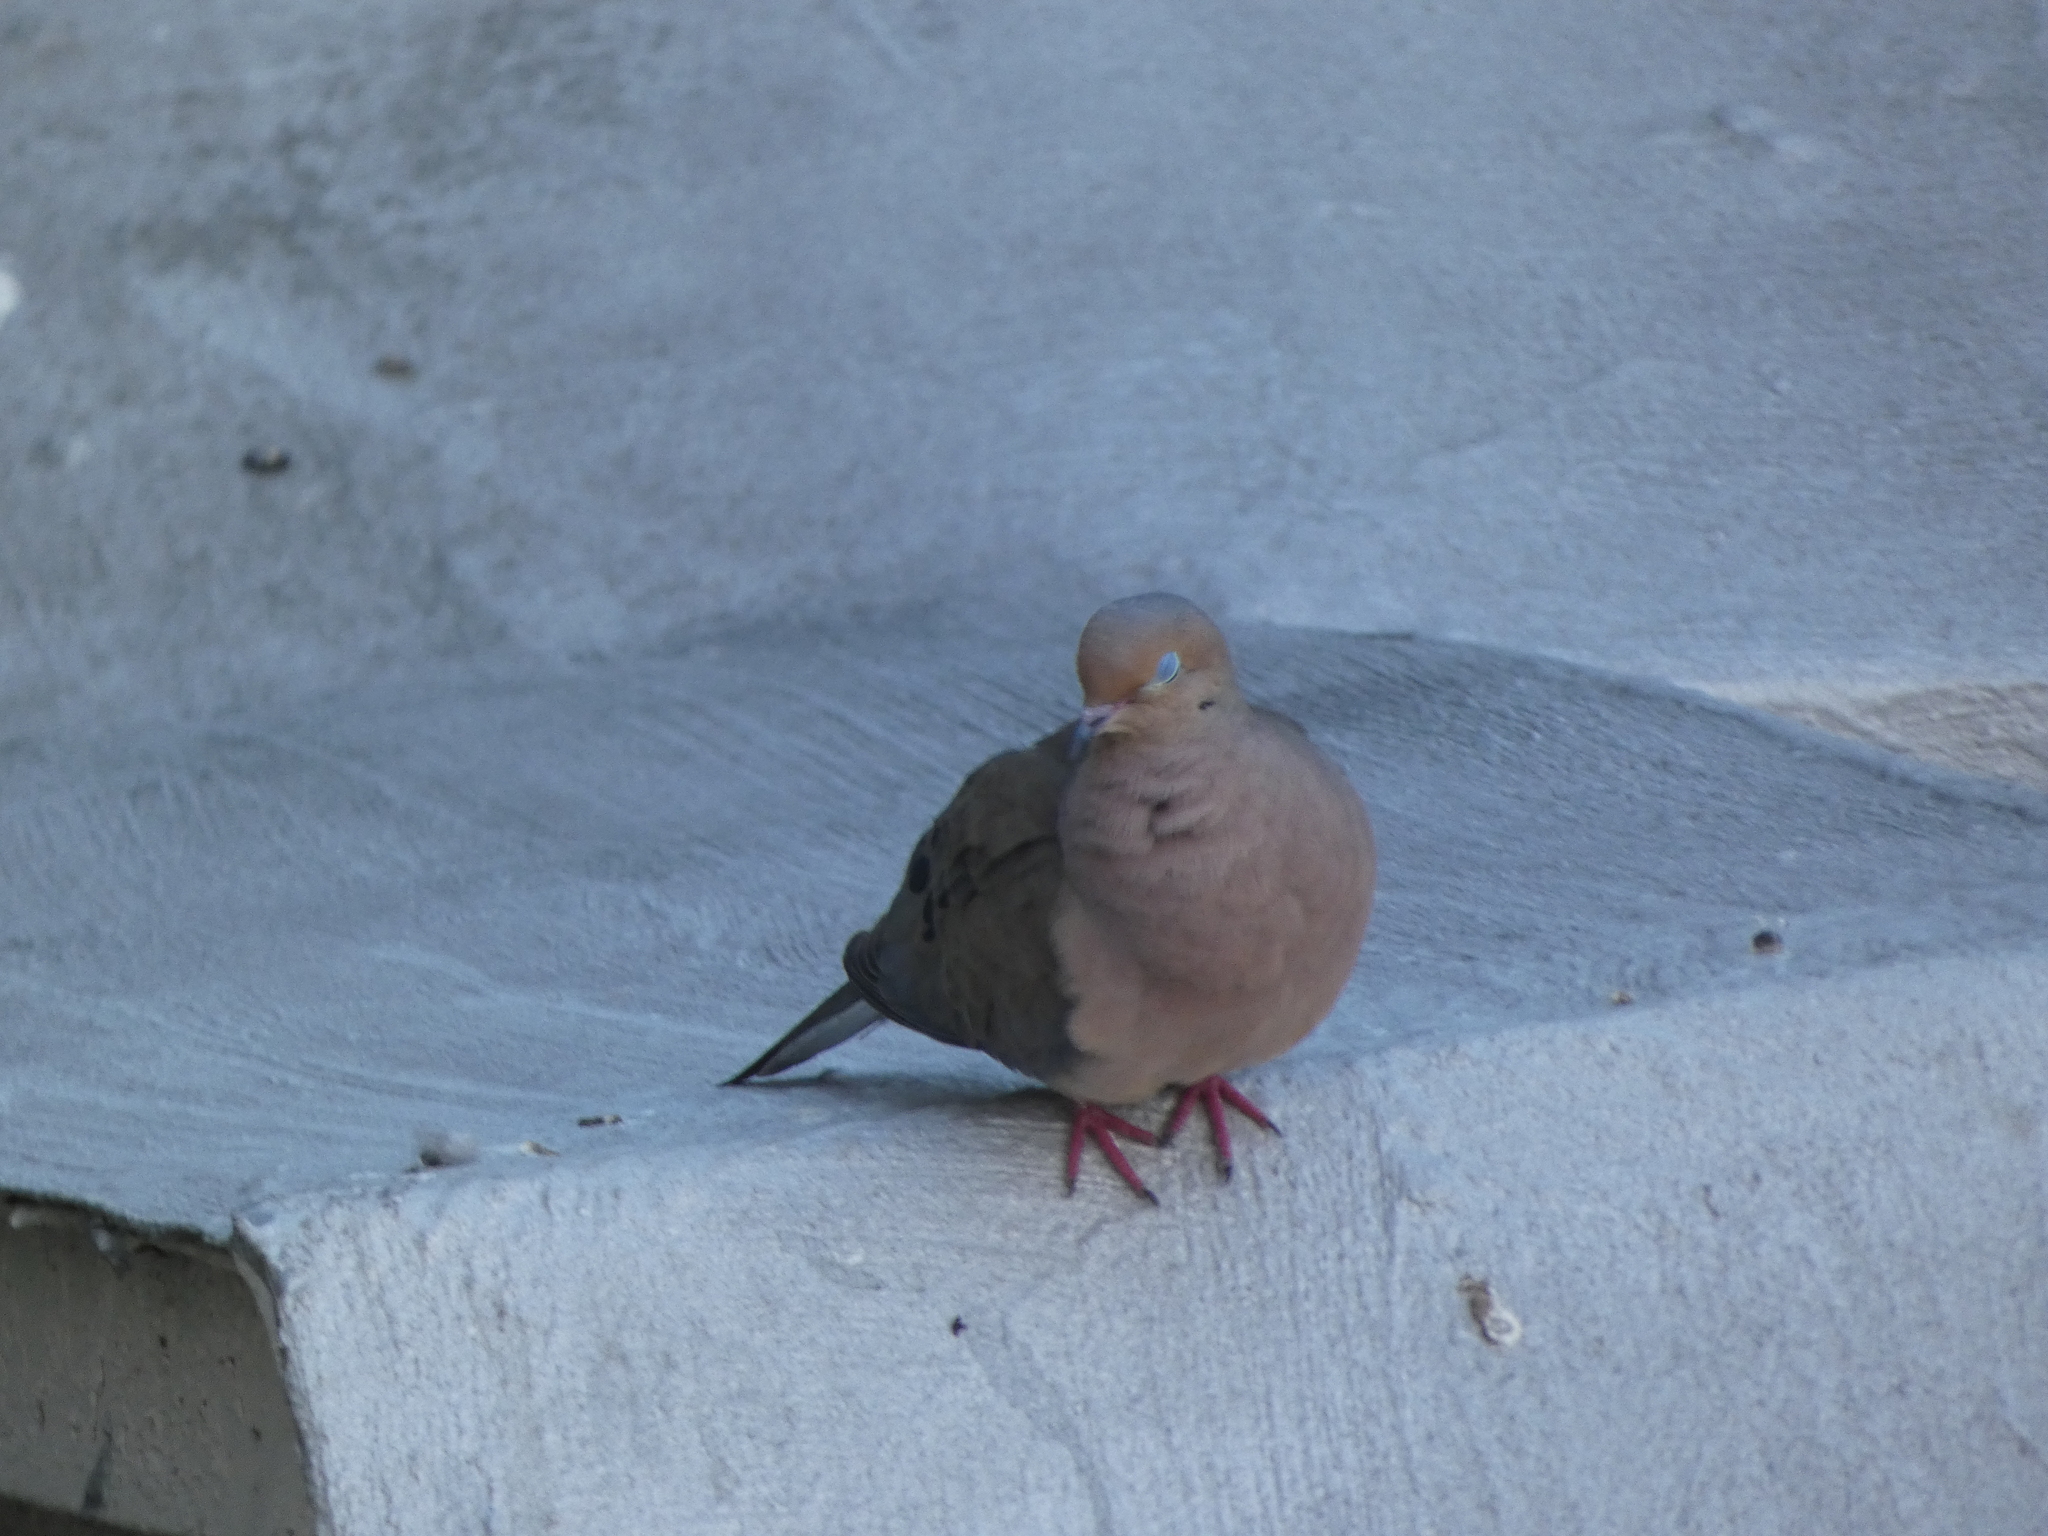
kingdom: Animalia
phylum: Chordata
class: Aves
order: Columbiformes
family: Columbidae
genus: Zenaida
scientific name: Zenaida macroura
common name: Mourning dove
